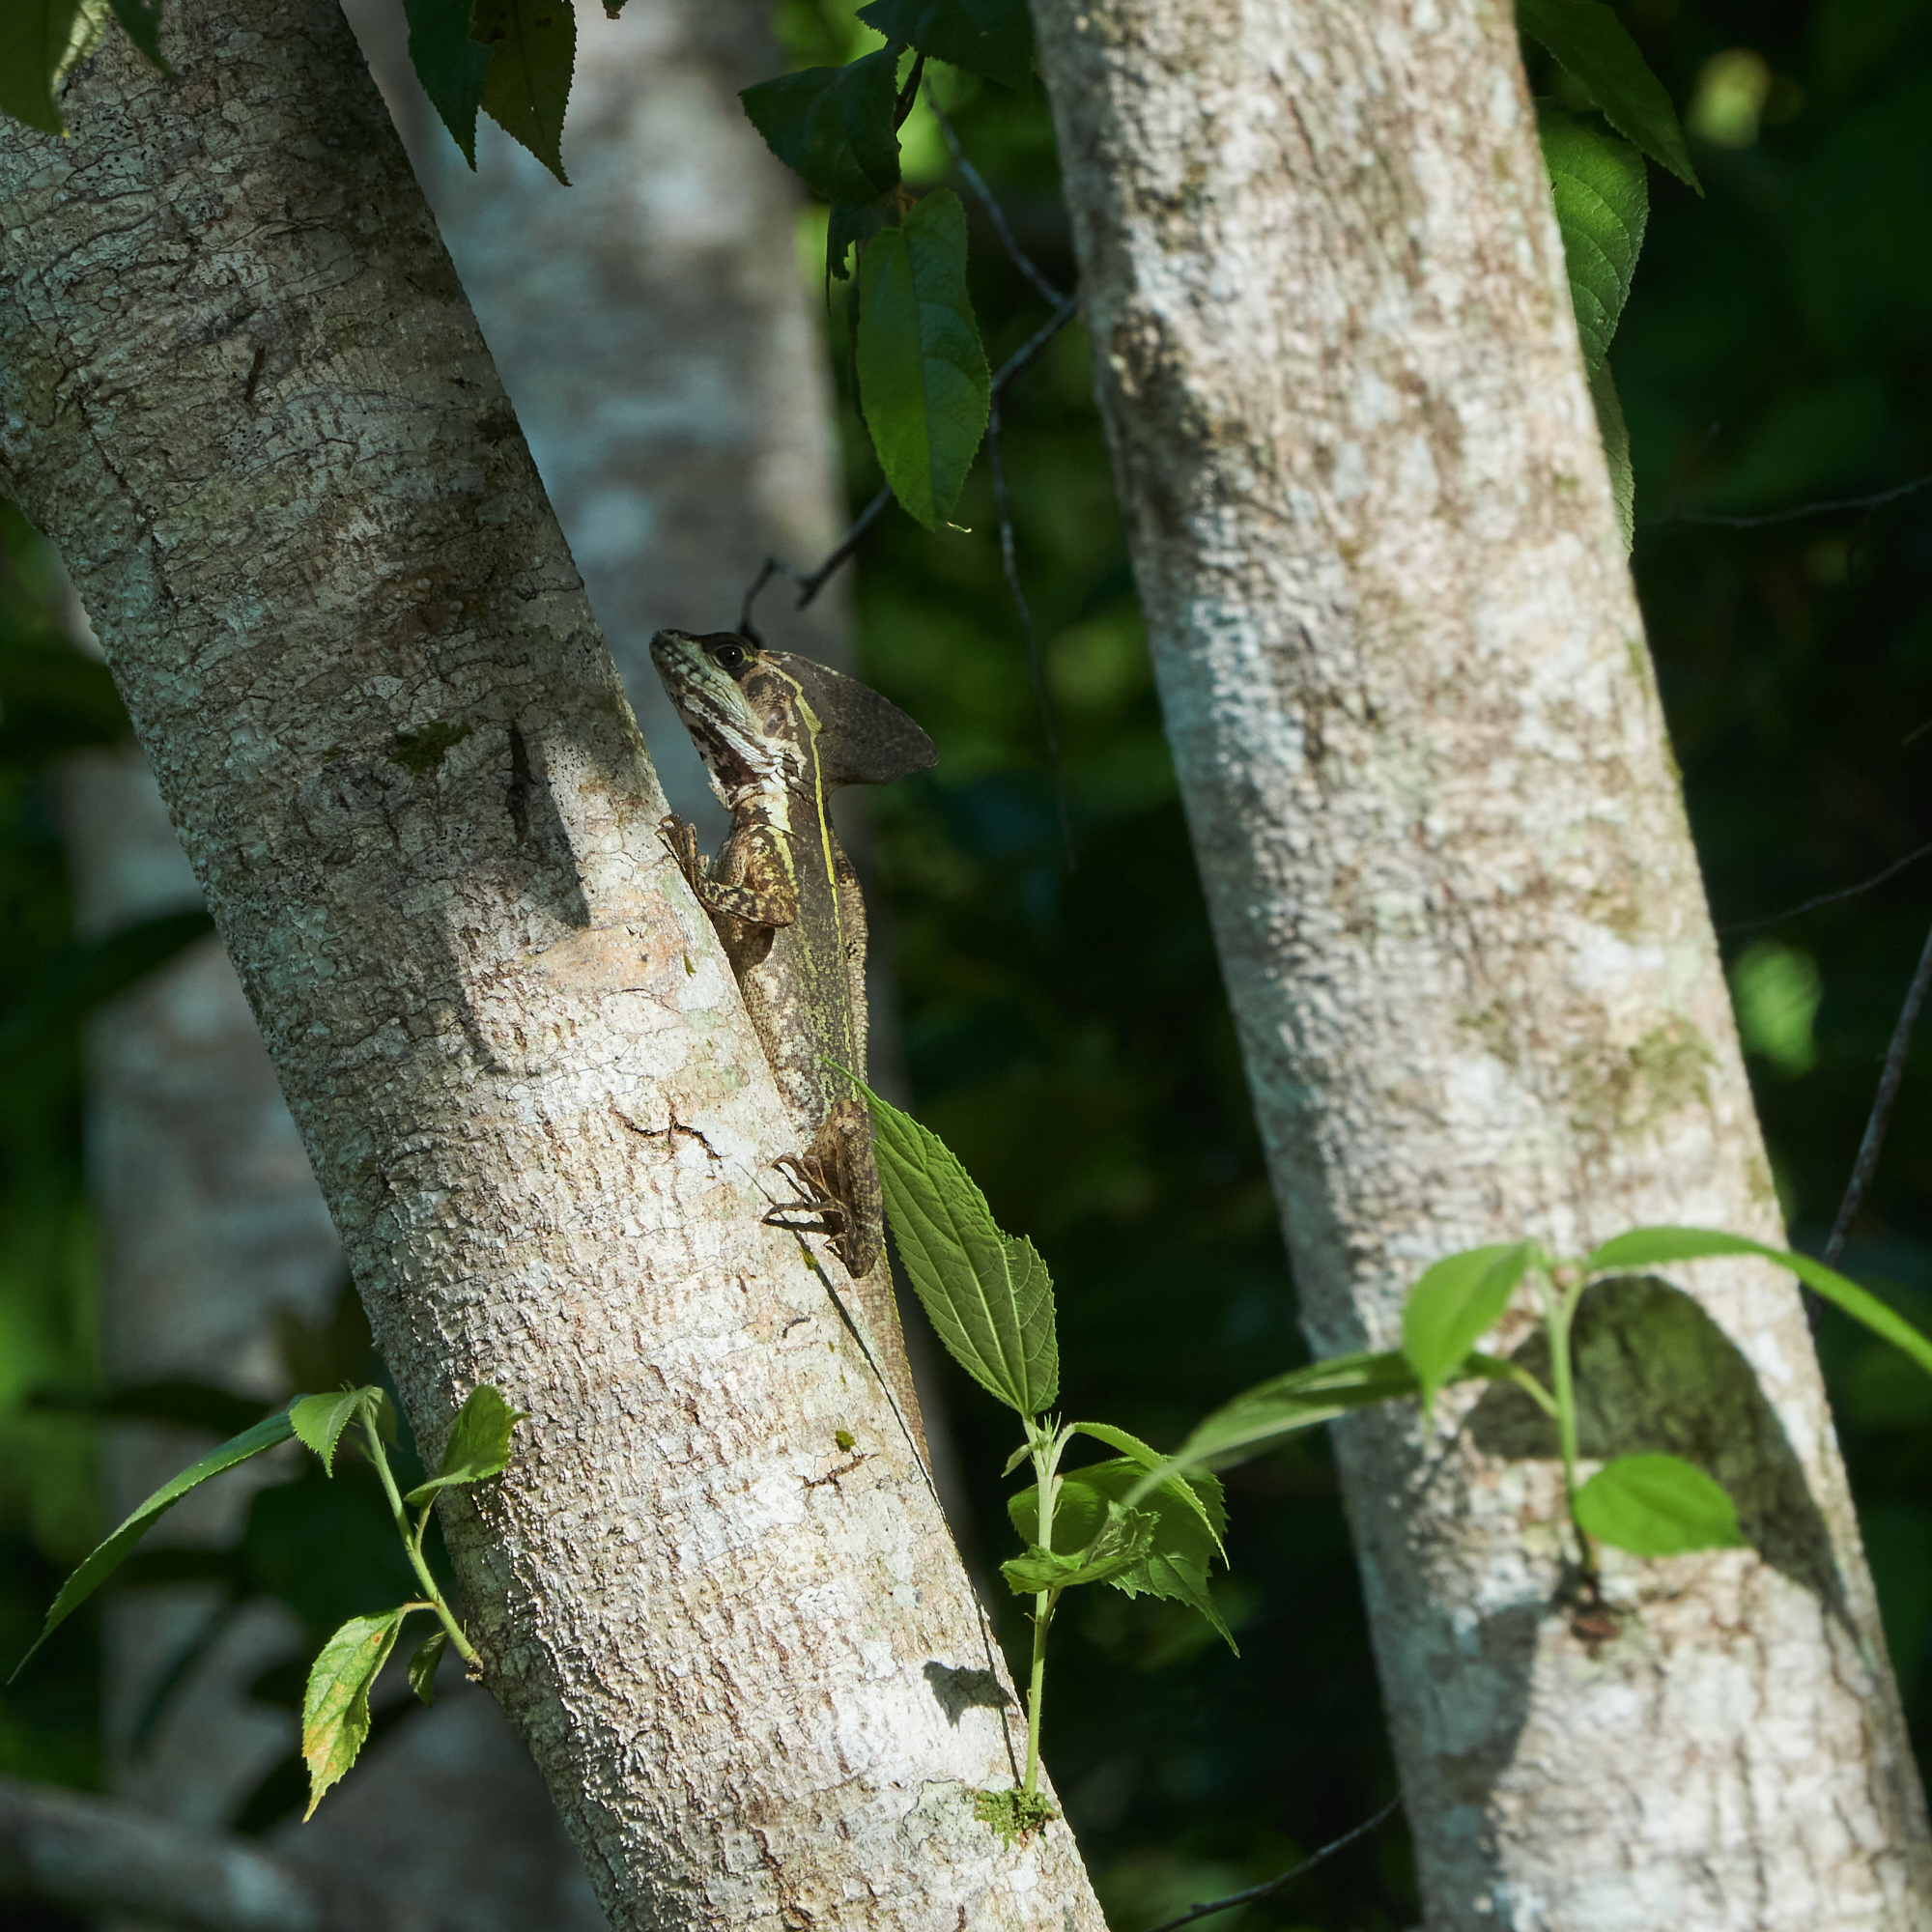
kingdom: Animalia
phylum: Chordata
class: Squamata
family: Corytophanidae
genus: Basiliscus
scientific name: Basiliscus vittatus
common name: Brown basilisk
